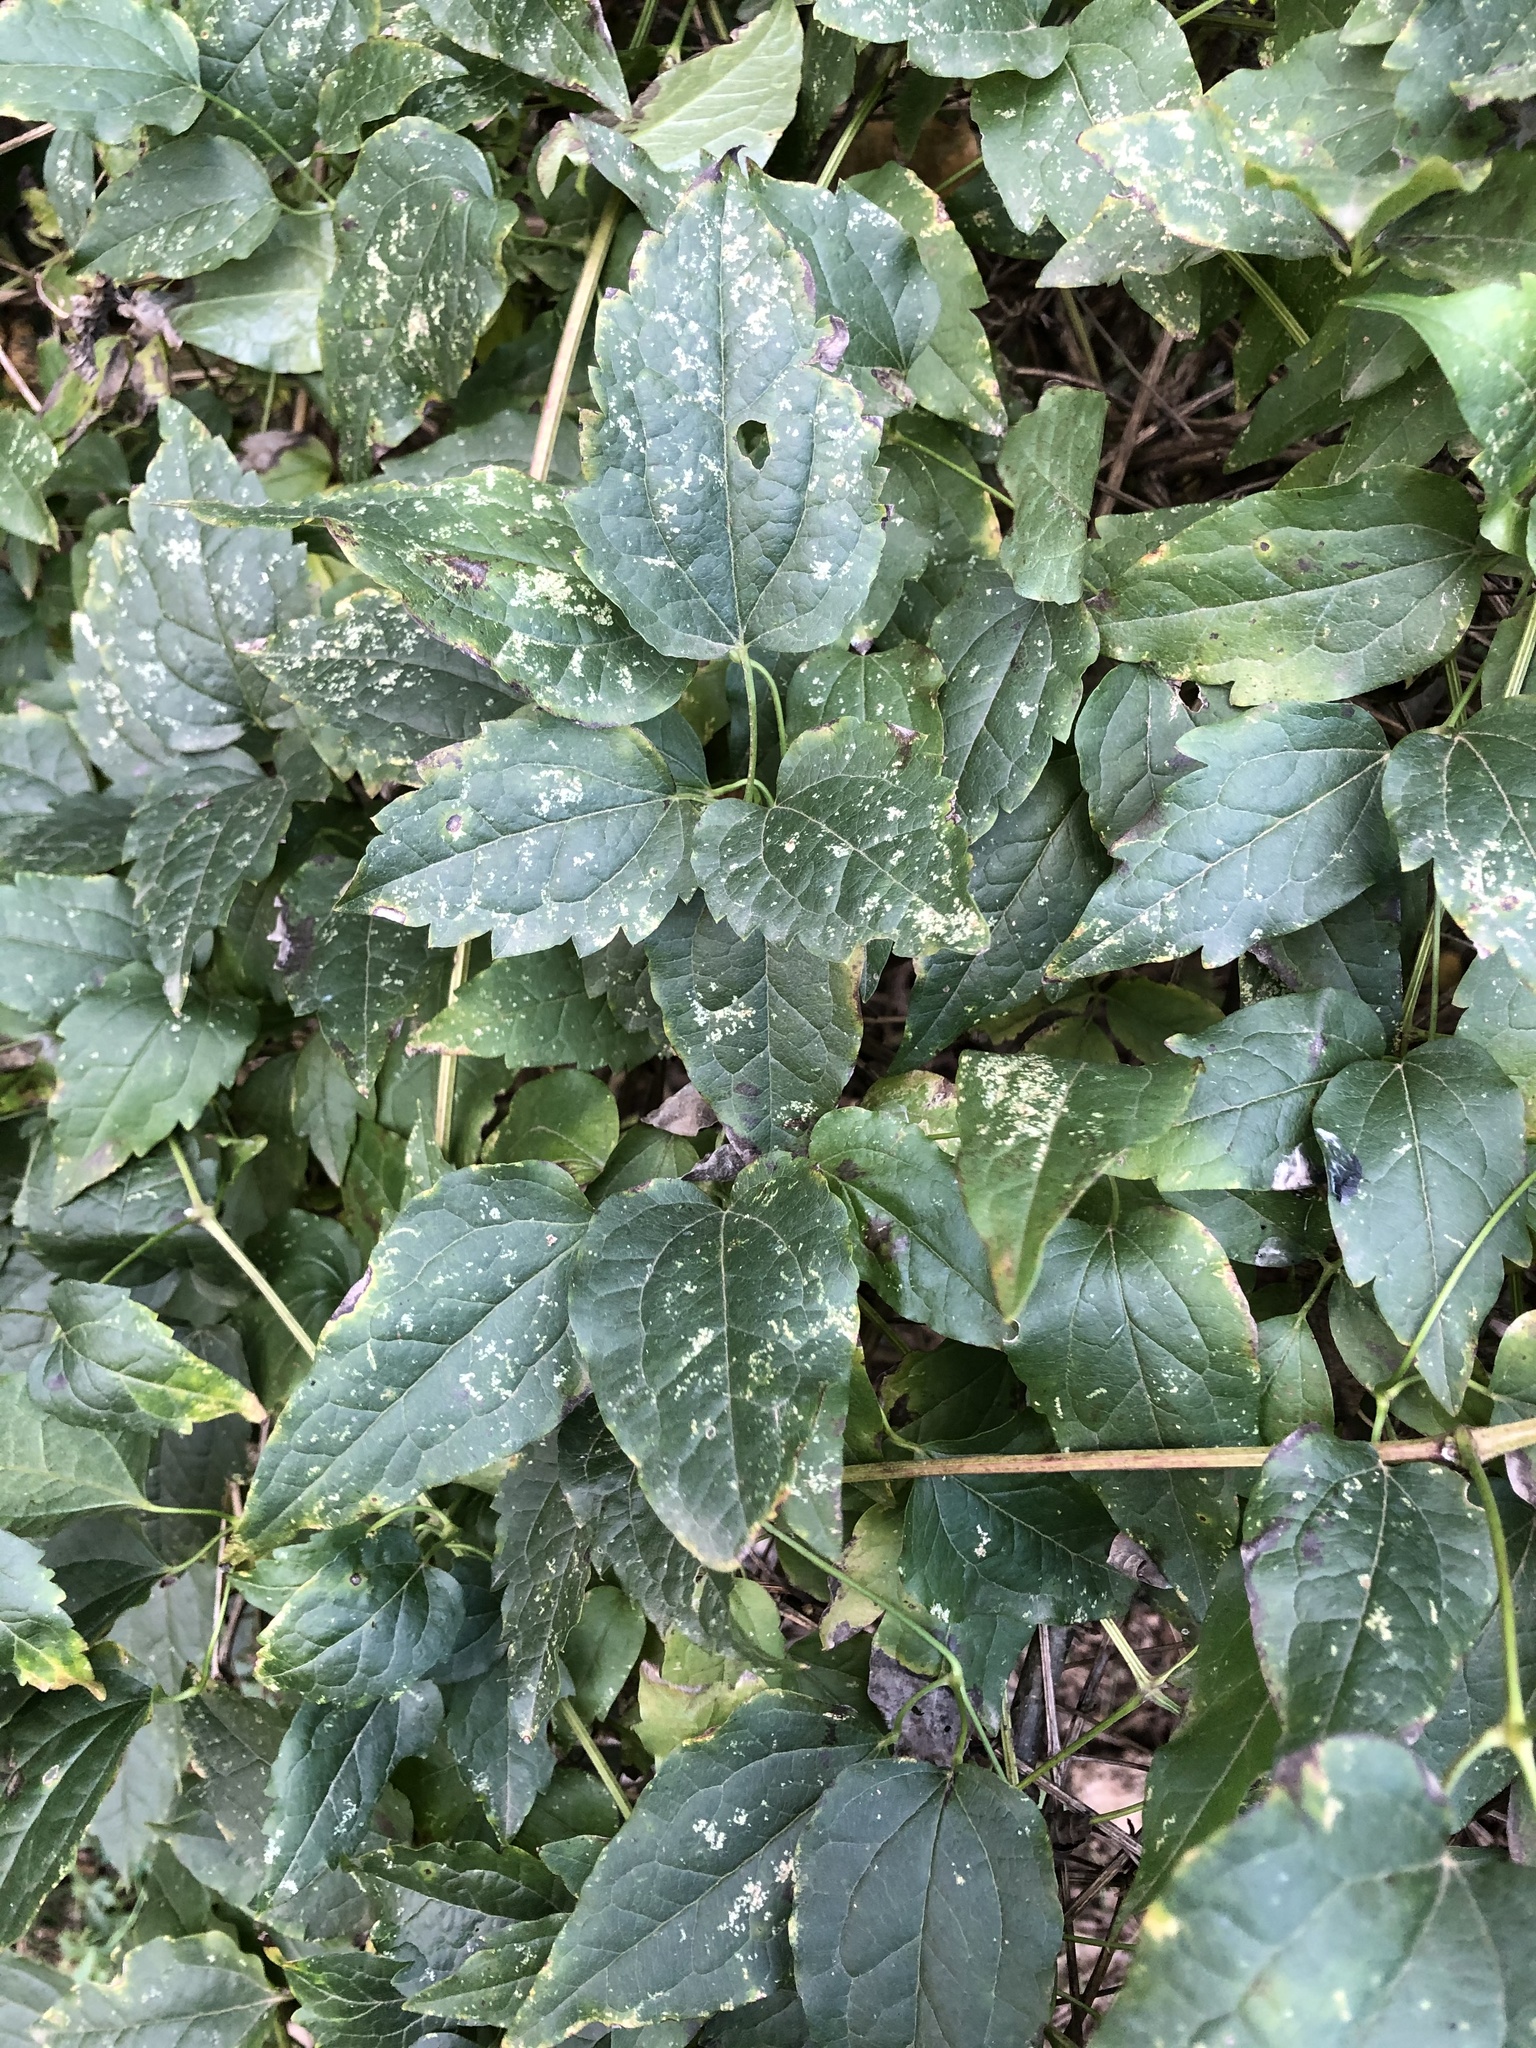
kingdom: Plantae
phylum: Tracheophyta
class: Magnoliopsida
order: Ranunculales
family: Ranunculaceae
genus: Clematis
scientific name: Clematis vitalba
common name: Evergreen clematis
